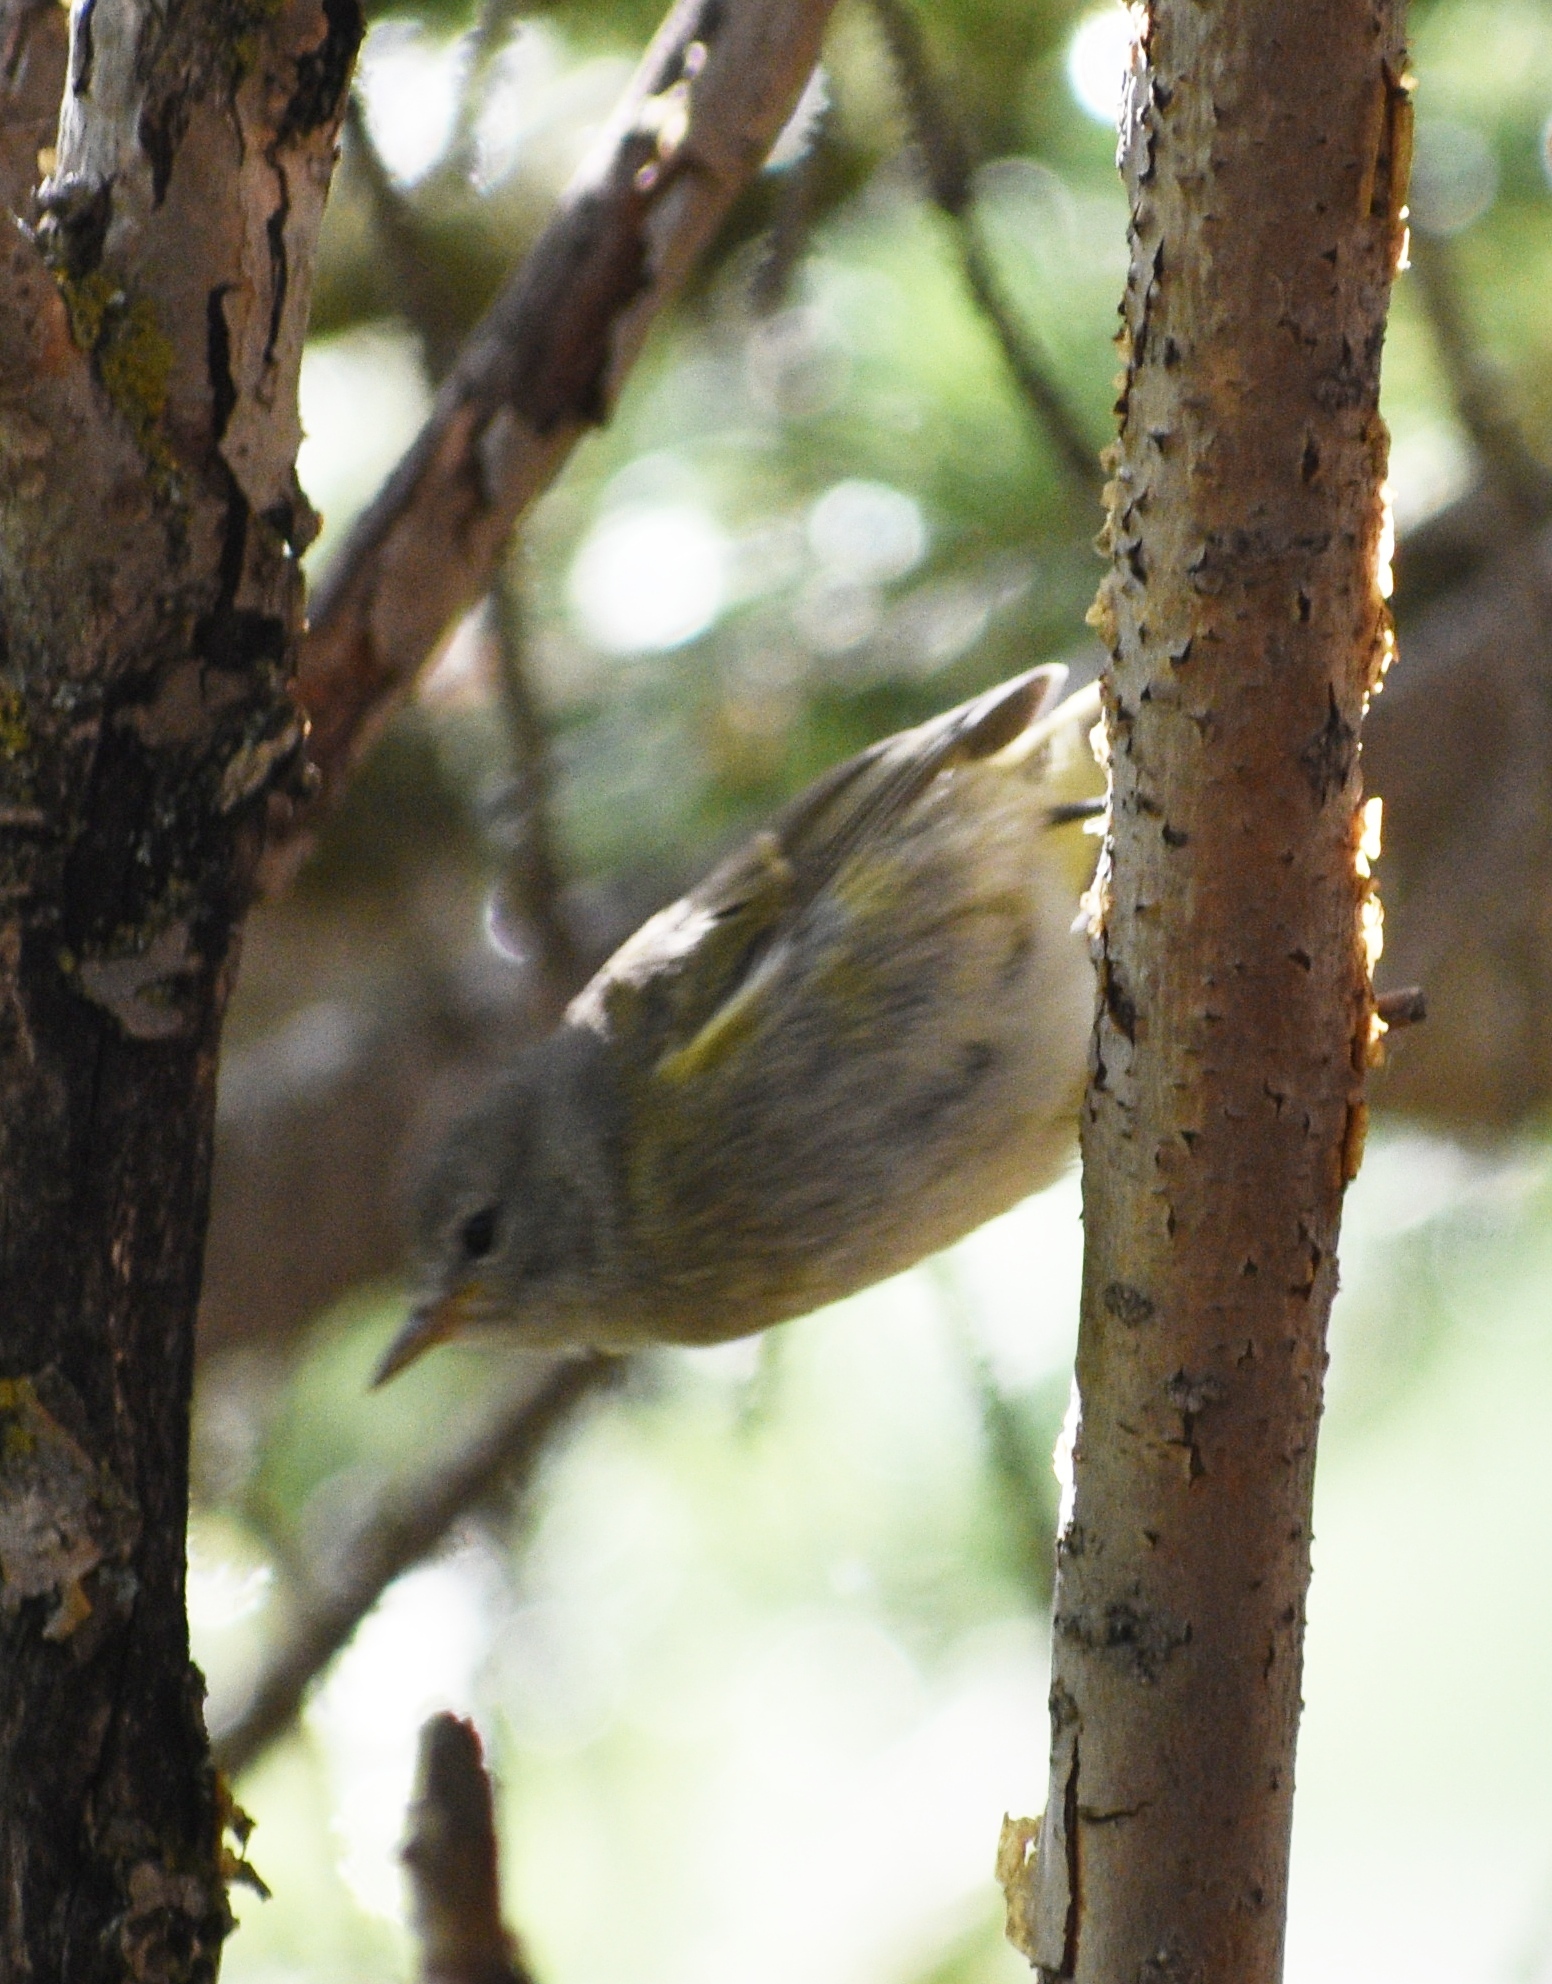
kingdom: Animalia
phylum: Chordata
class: Aves
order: Passeriformes
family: Parulidae
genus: Leiothlypis
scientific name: Leiothlypis celata
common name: Orange-crowned warbler
